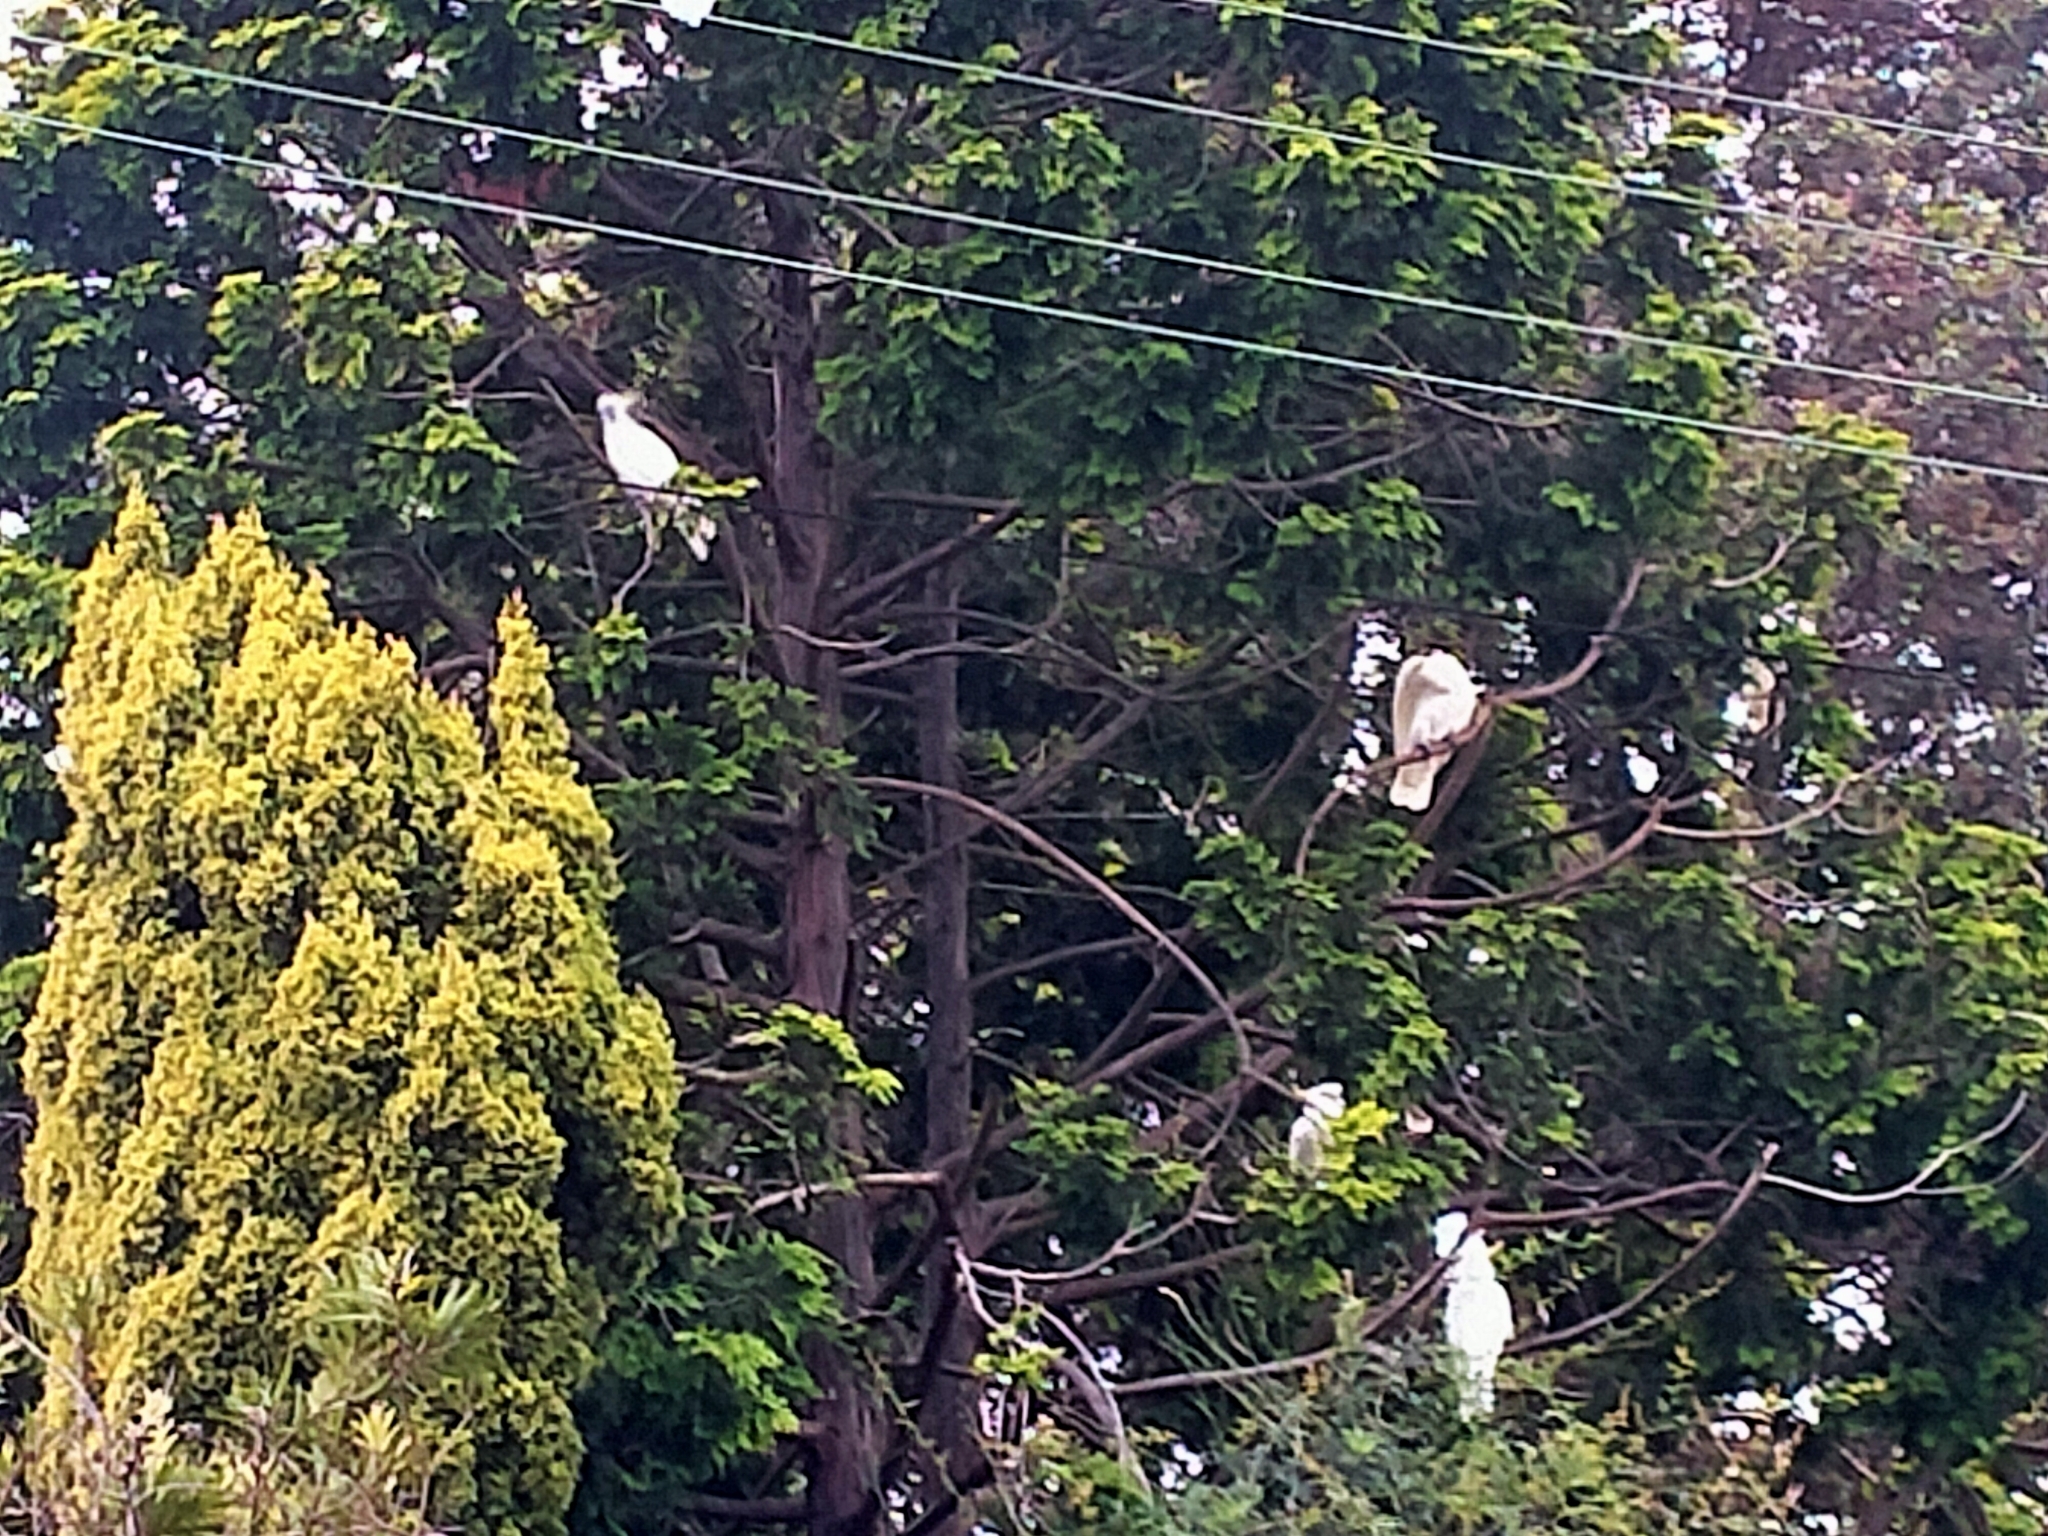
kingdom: Animalia
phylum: Chordata
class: Aves
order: Psittaciformes
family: Psittacidae
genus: Cacatua
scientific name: Cacatua galerita
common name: Sulphur-crested cockatoo
